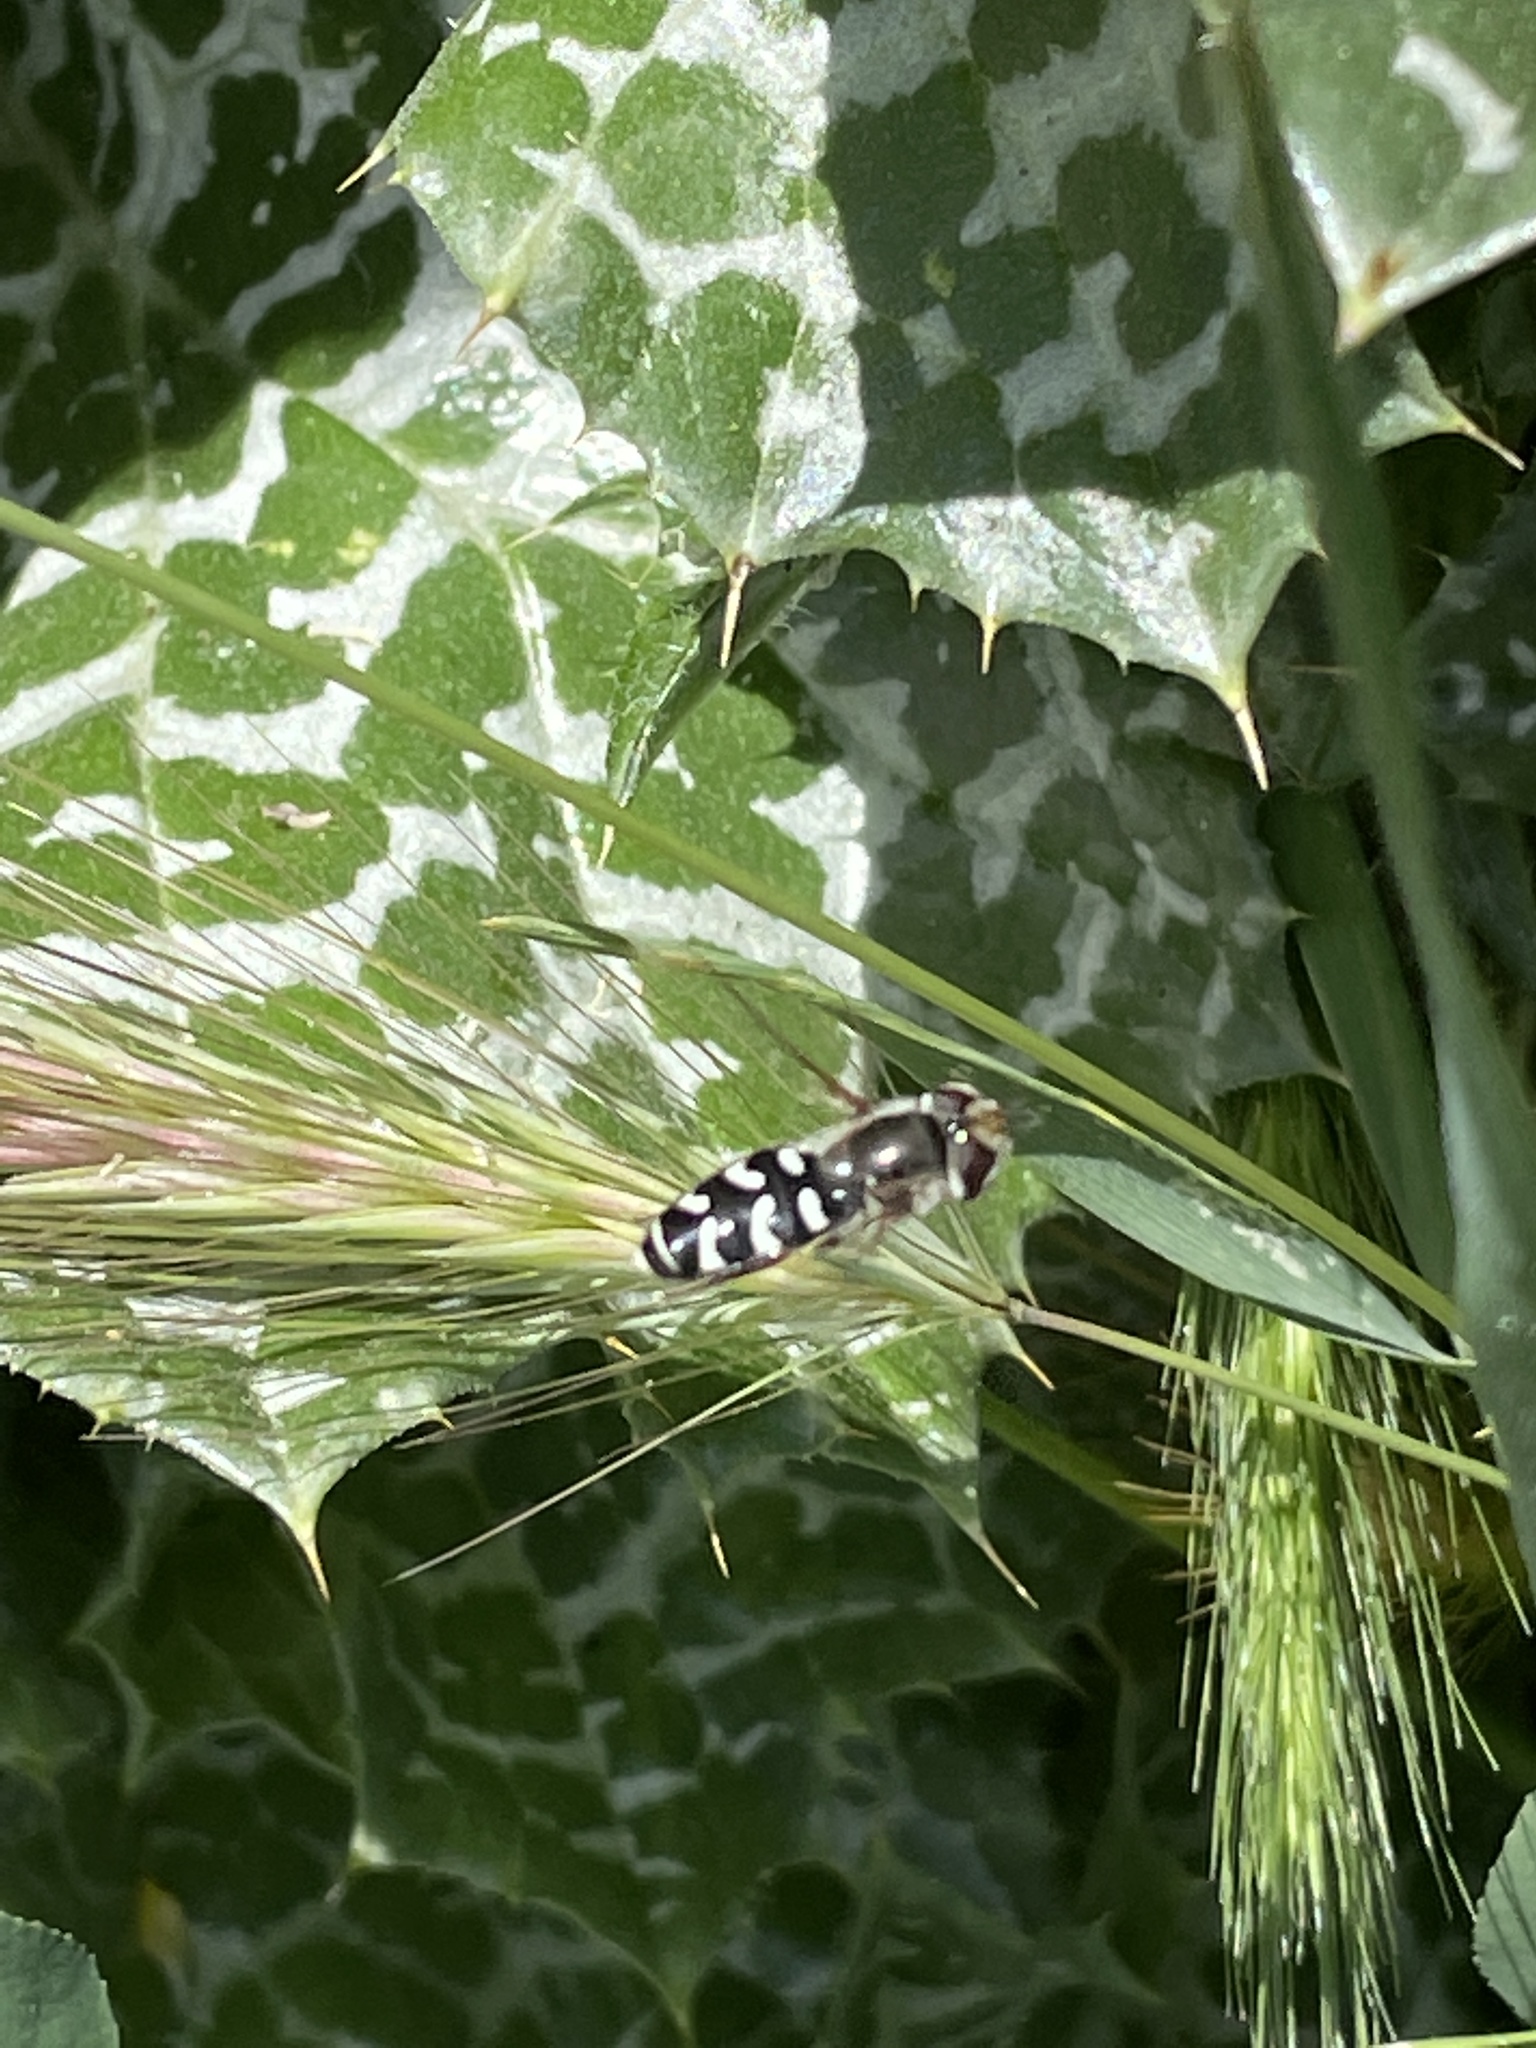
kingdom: Animalia
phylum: Arthropoda
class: Insecta
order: Diptera
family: Syrphidae
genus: Scaeva
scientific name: Scaeva affinis
